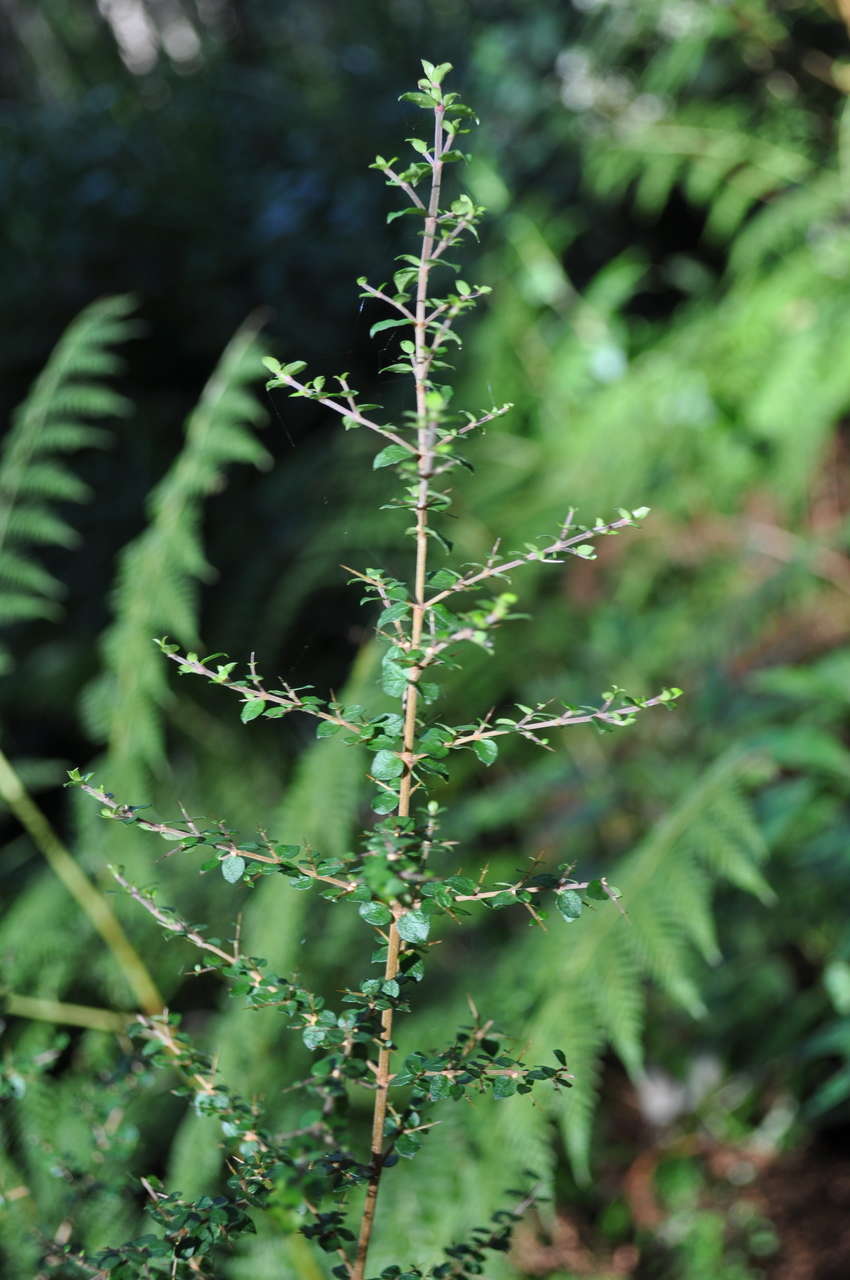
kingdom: Plantae
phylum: Tracheophyta
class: Magnoliopsida
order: Gentianales
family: Rubiaceae
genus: Coprosma
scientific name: Coprosma quadrifida
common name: Prickly currantbush
